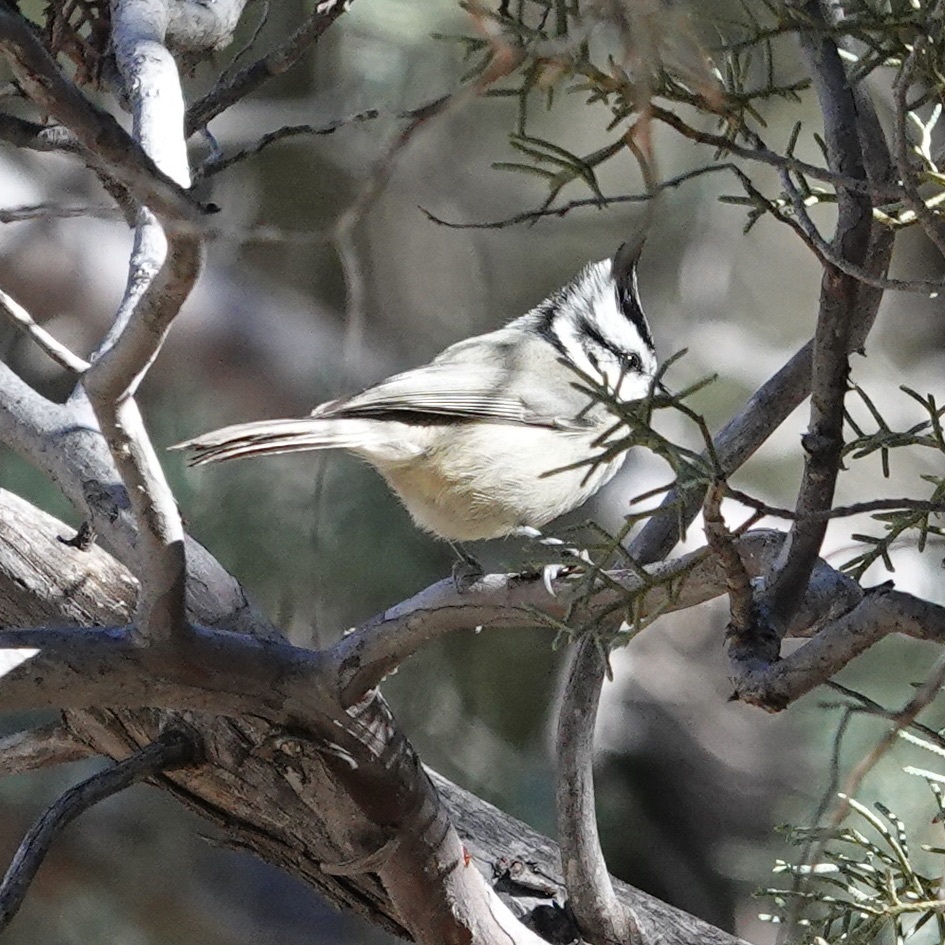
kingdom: Animalia
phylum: Chordata
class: Aves
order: Passeriformes
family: Paridae
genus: Baeolophus
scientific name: Baeolophus wollweberi
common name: Bridled titmouse
